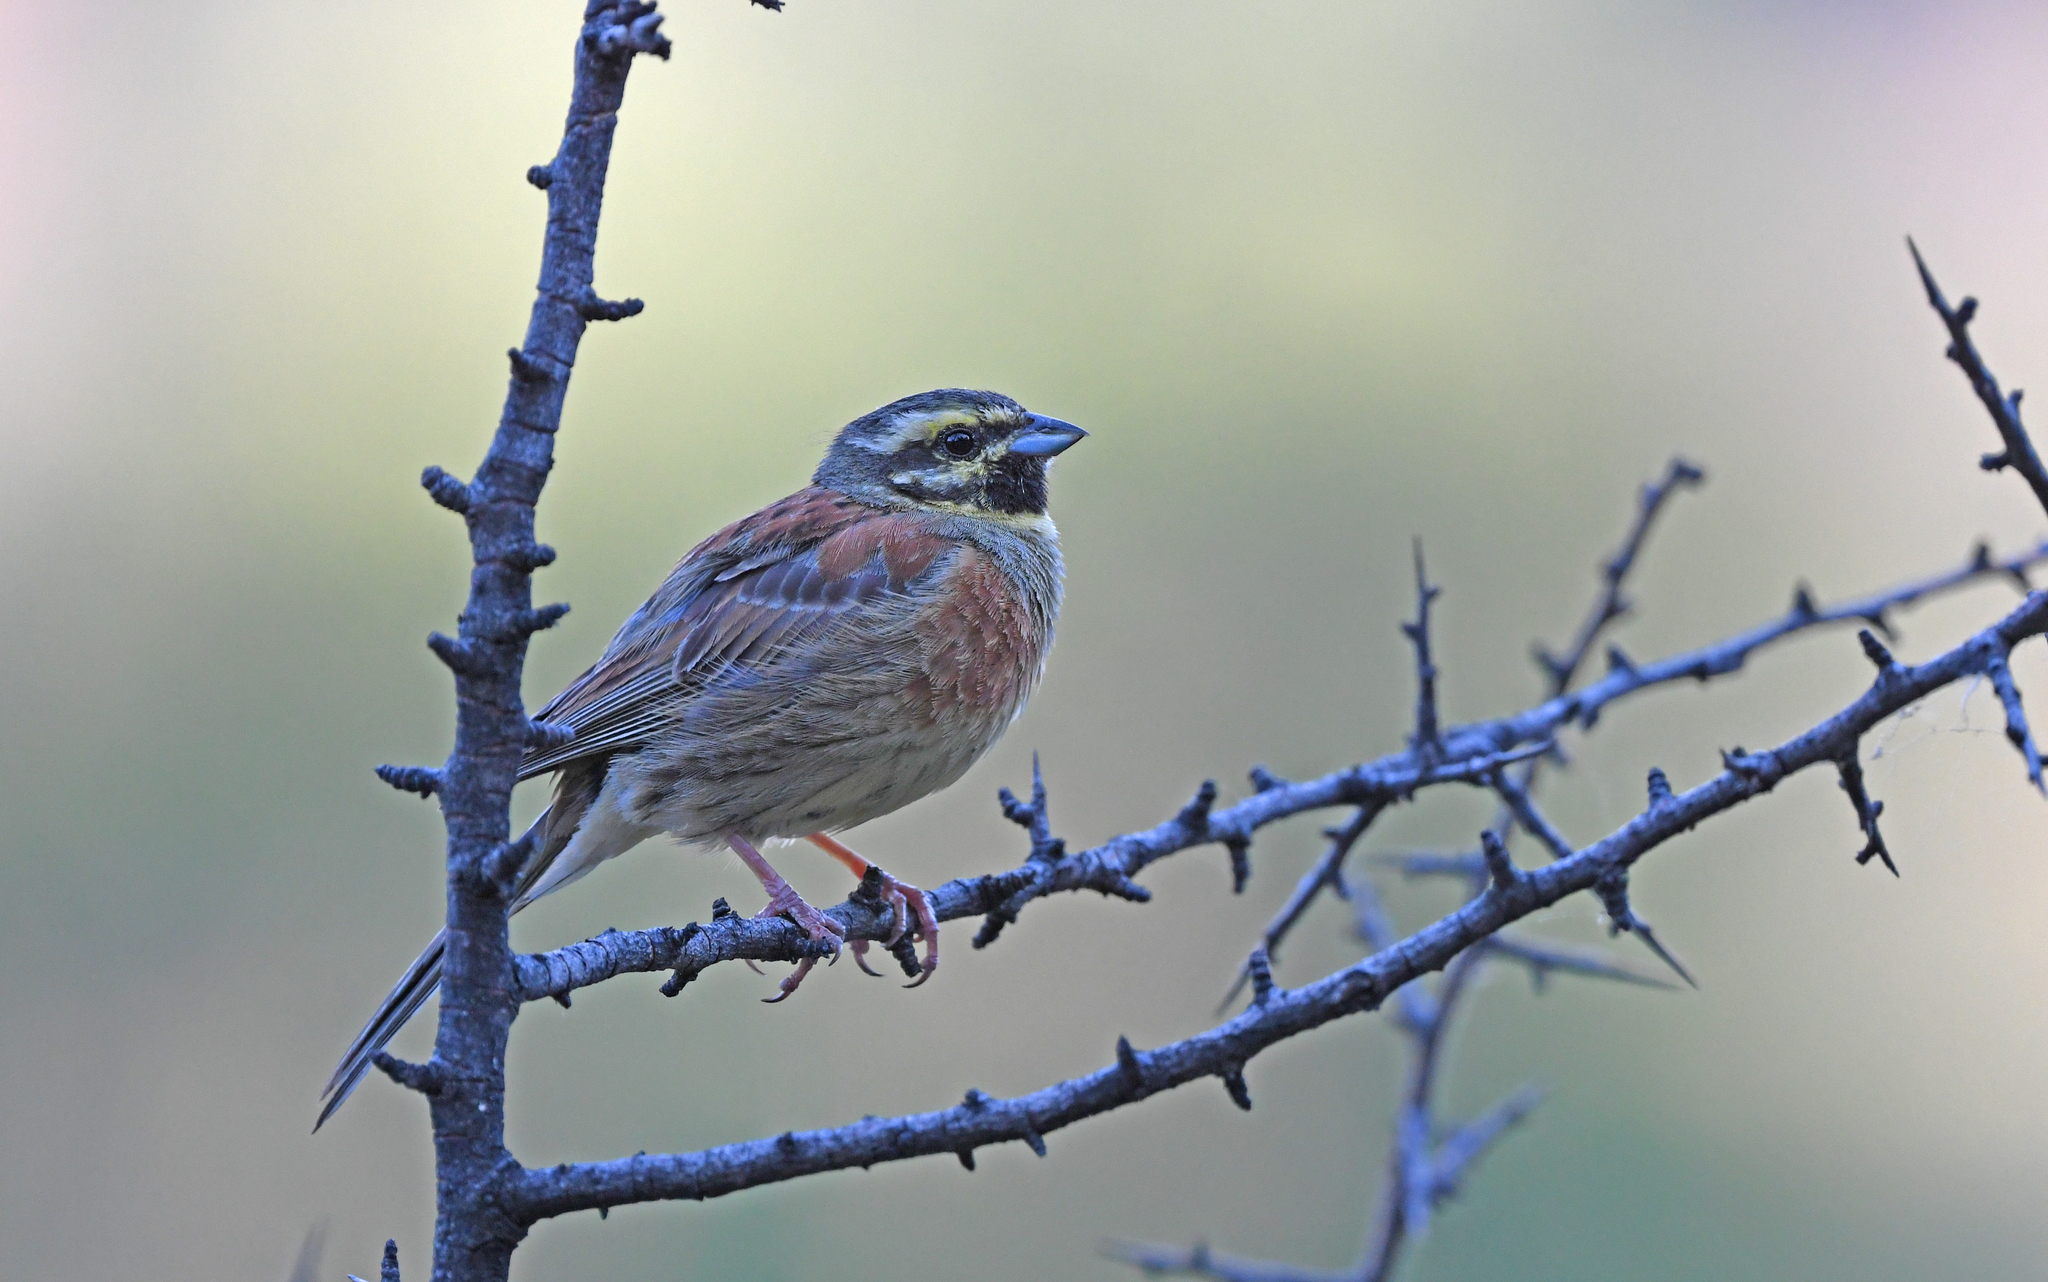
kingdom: Animalia
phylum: Chordata
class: Aves
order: Passeriformes
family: Emberizidae
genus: Emberiza
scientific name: Emberiza cirlus
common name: Cirl bunting
